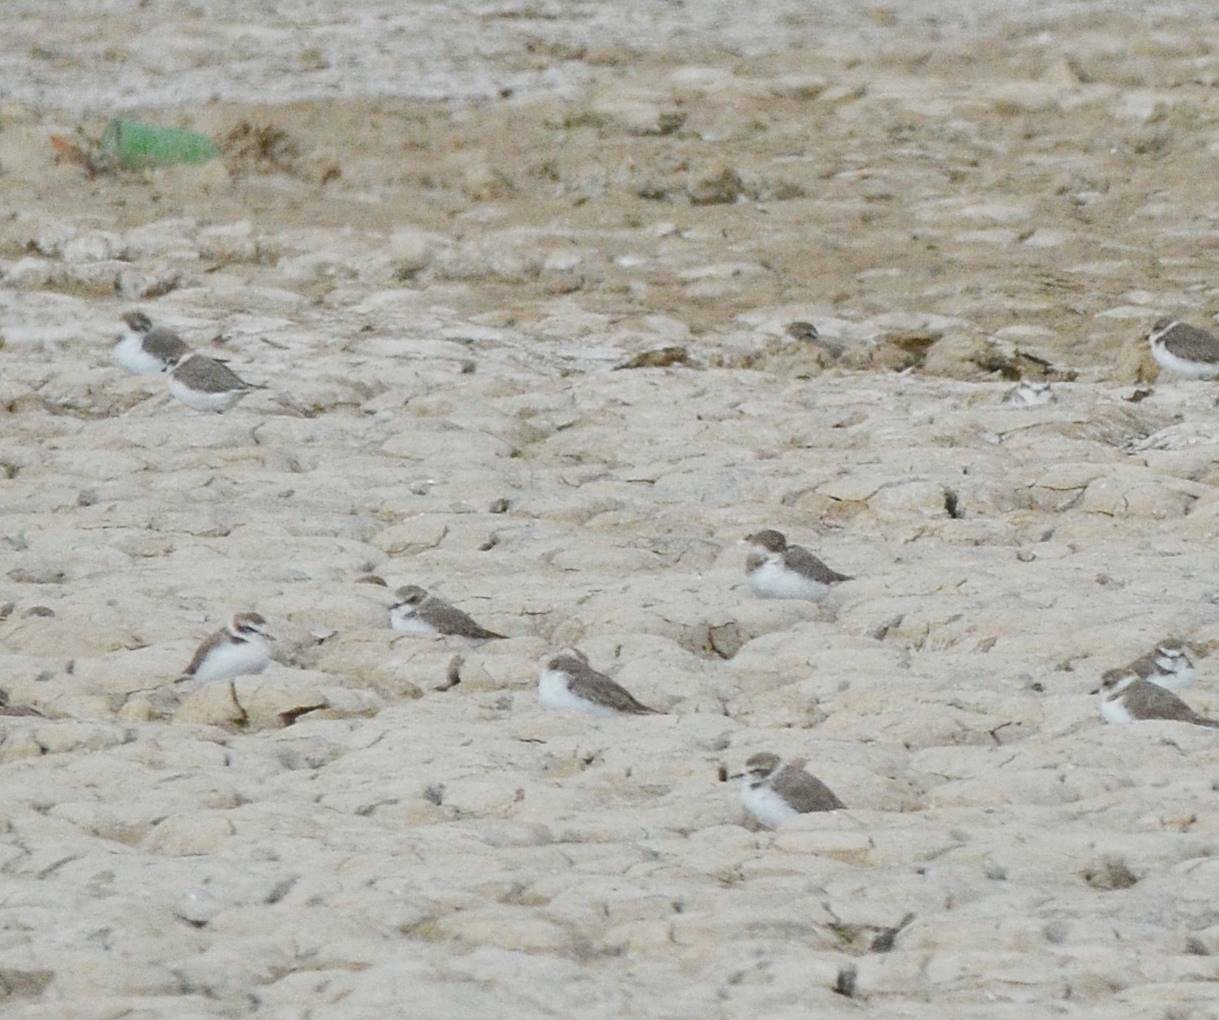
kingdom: Animalia
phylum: Chordata
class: Aves
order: Charadriiformes
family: Charadriidae
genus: Charadrius
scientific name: Charadrius alexandrinus
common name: Kentish plover
